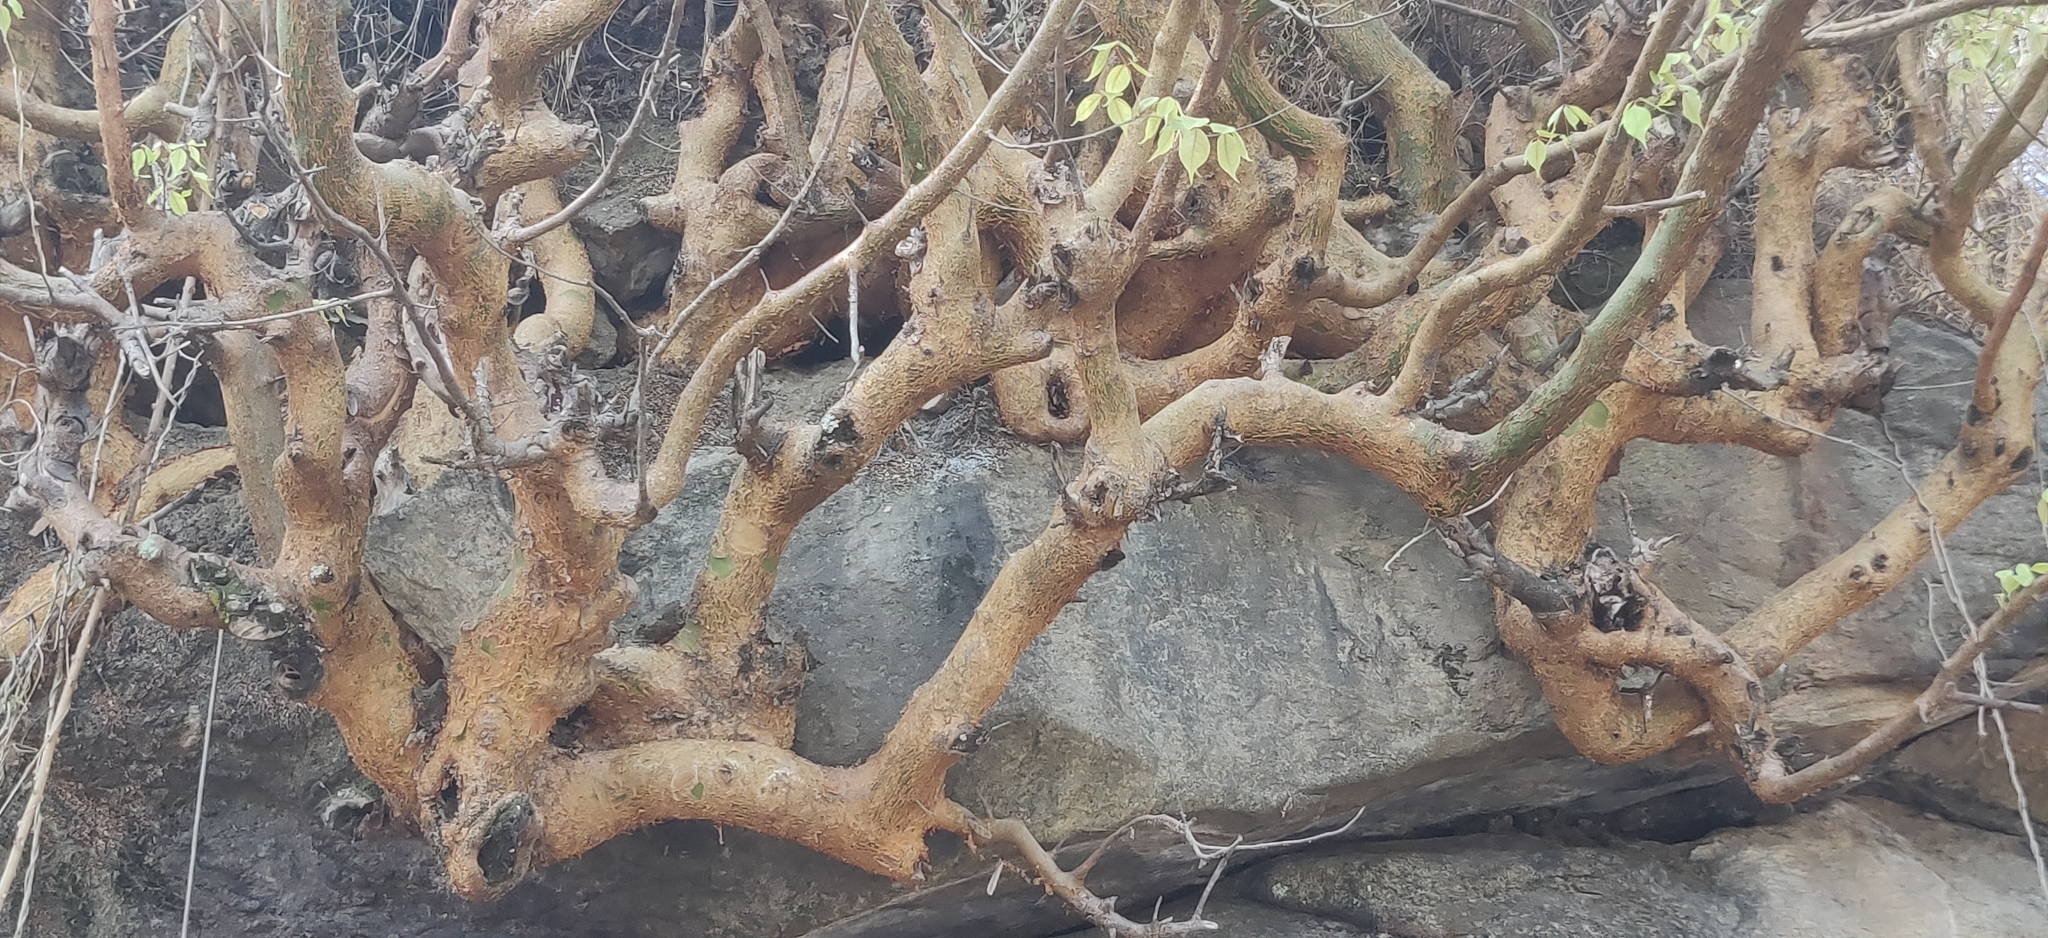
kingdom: Plantae
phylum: Tracheophyta
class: Magnoliopsida
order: Sapindales
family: Burseraceae
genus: Commiphora
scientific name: Commiphora caudata
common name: Hill-mango
